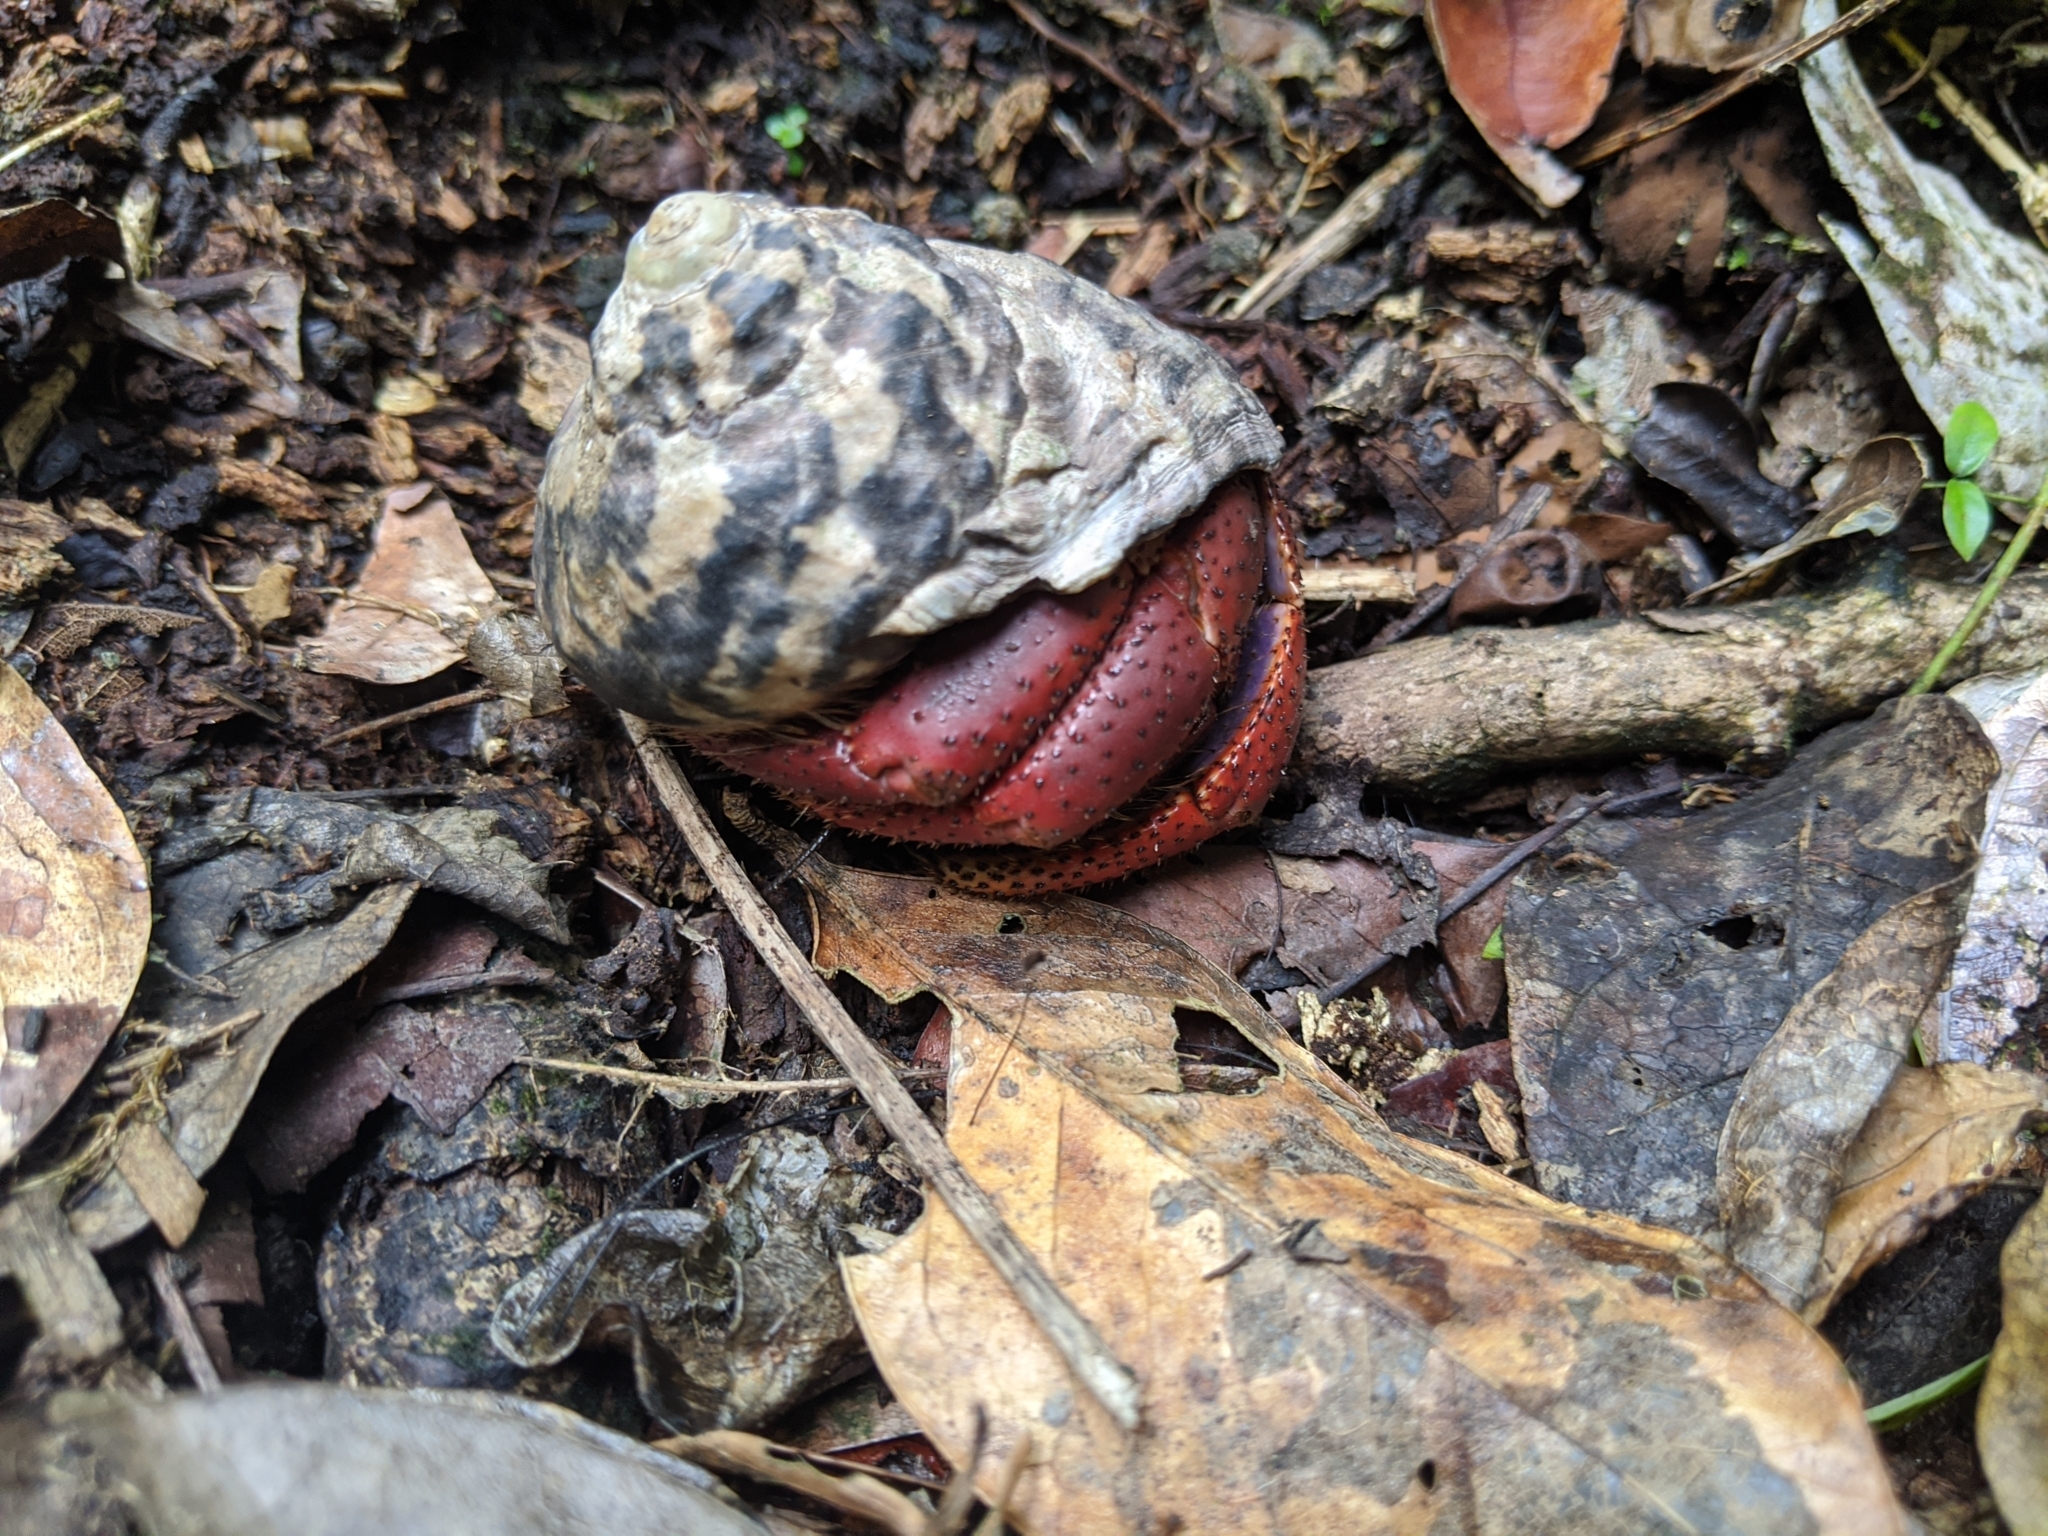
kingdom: Animalia
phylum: Arthropoda
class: Malacostraca
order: Decapoda
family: Coenobitidae
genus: Coenobita
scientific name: Coenobita clypeatus
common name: Caribbean hermit crab
